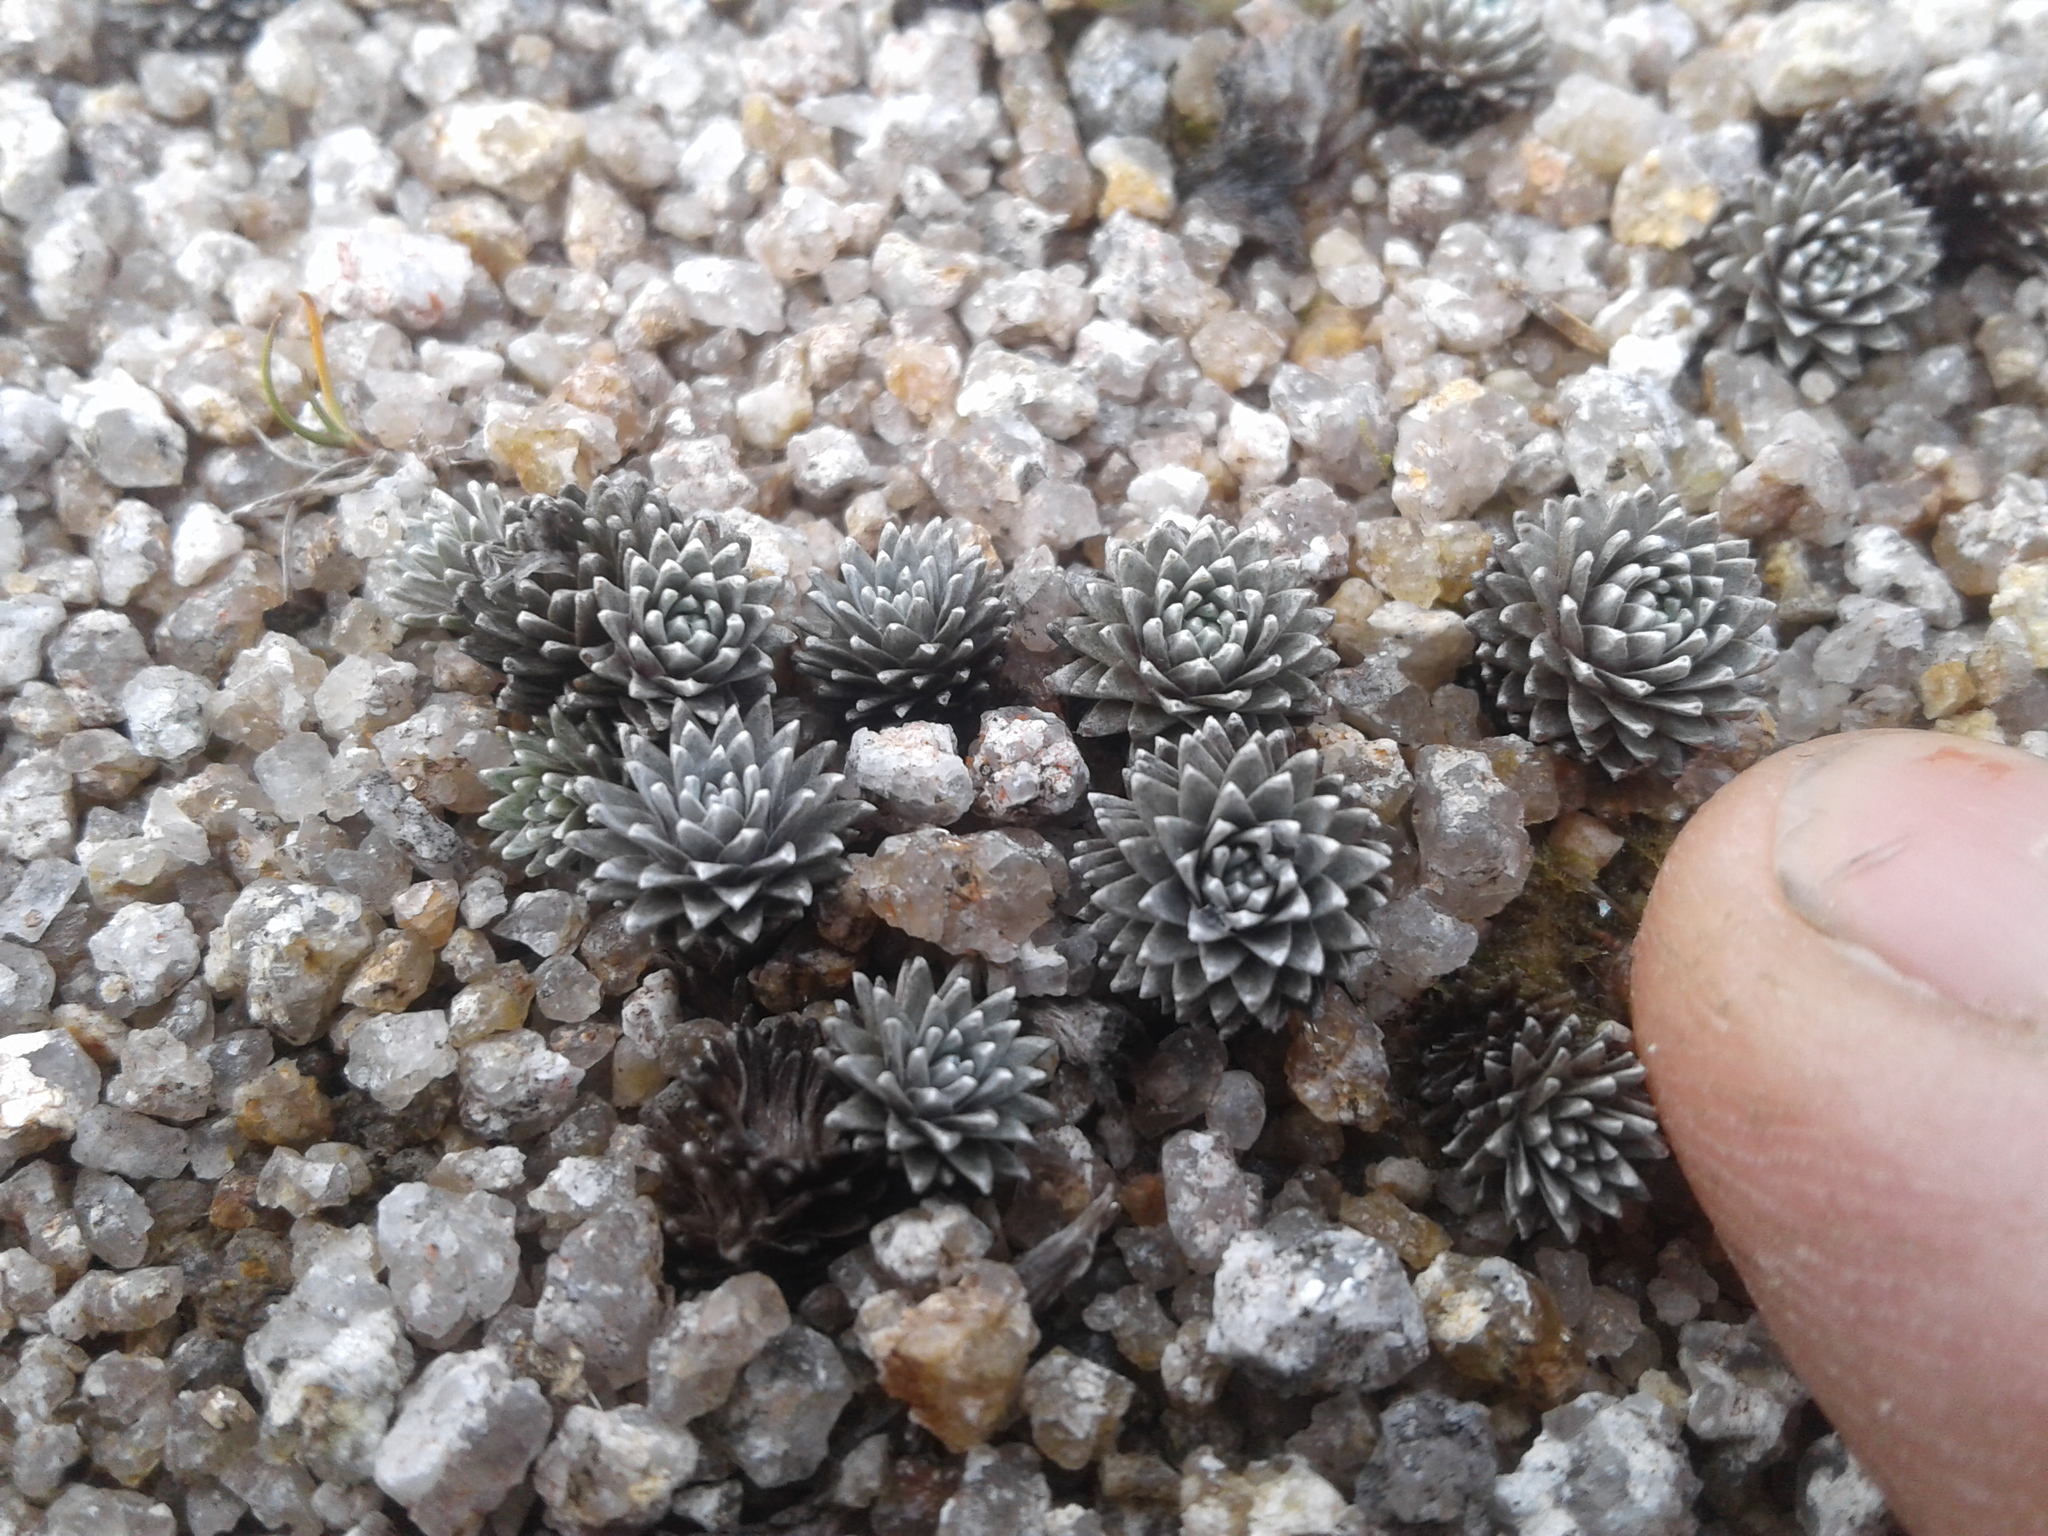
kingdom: Plantae
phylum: Tracheophyta
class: Magnoliopsida
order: Asterales
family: Asteraceae
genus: Raoulia
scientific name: Raoulia grandiflora
